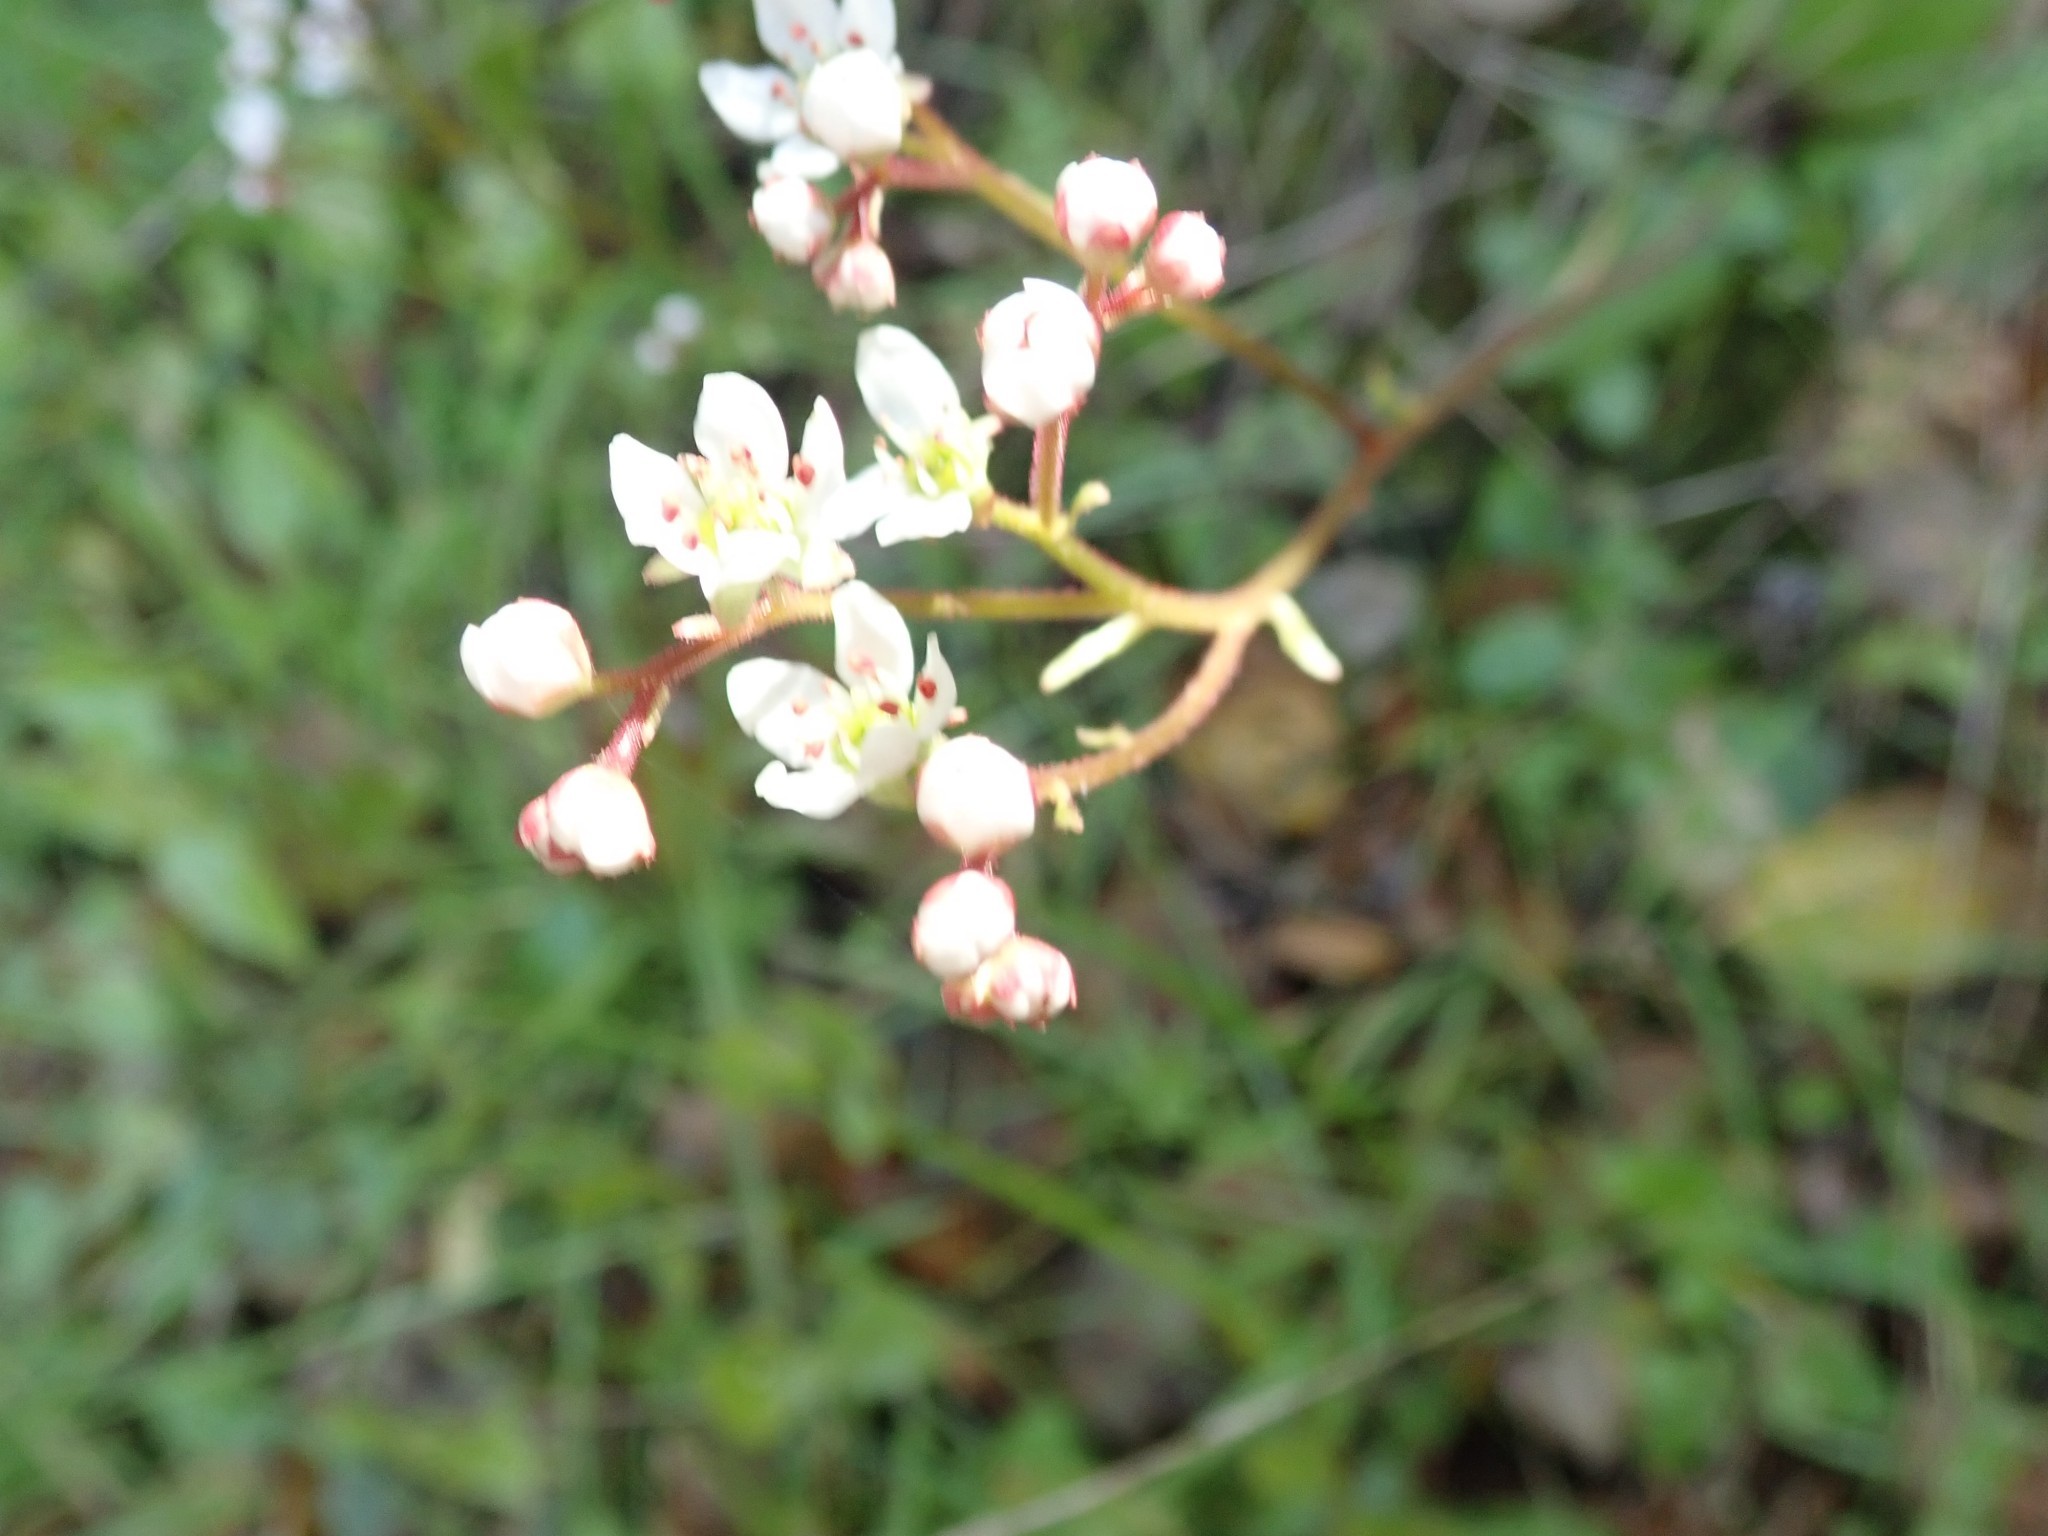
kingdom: Plantae
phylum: Tracheophyta
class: Magnoliopsida
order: Saxifragales
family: Saxifragaceae
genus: Micranthes
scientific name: Micranthes californica
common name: California saxifrage
